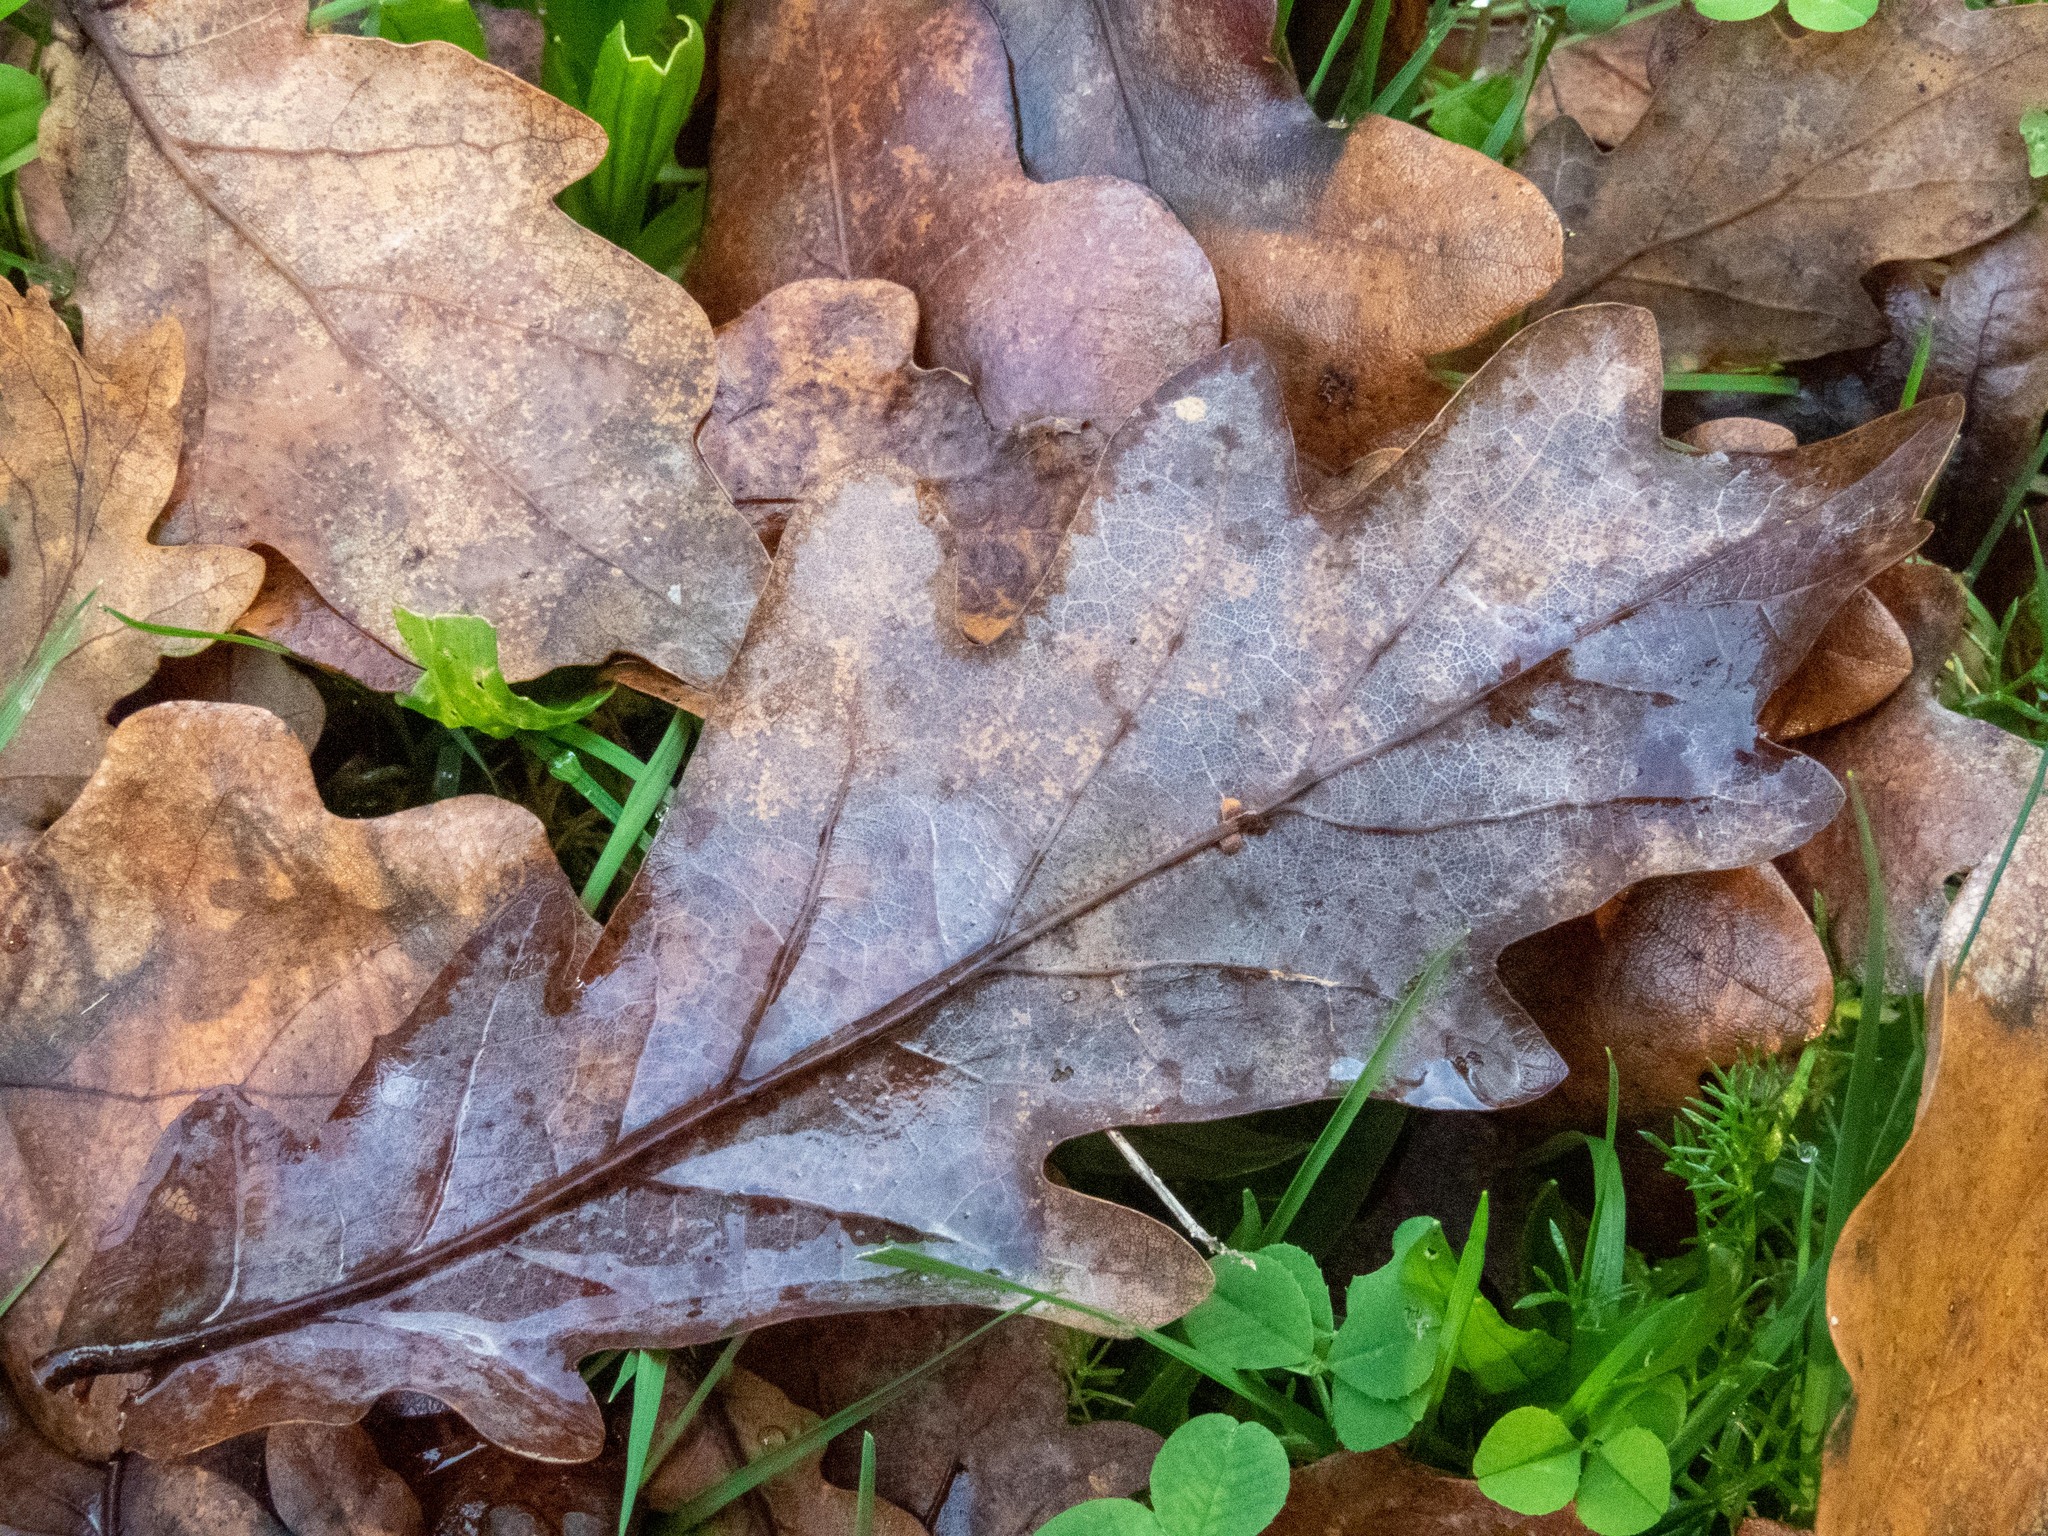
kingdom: Animalia
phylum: Arthropoda
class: Insecta
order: Hymenoptera
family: Cynipidae
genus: Neuroterus
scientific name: Neuroterus anthracinus
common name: Oyster gall
